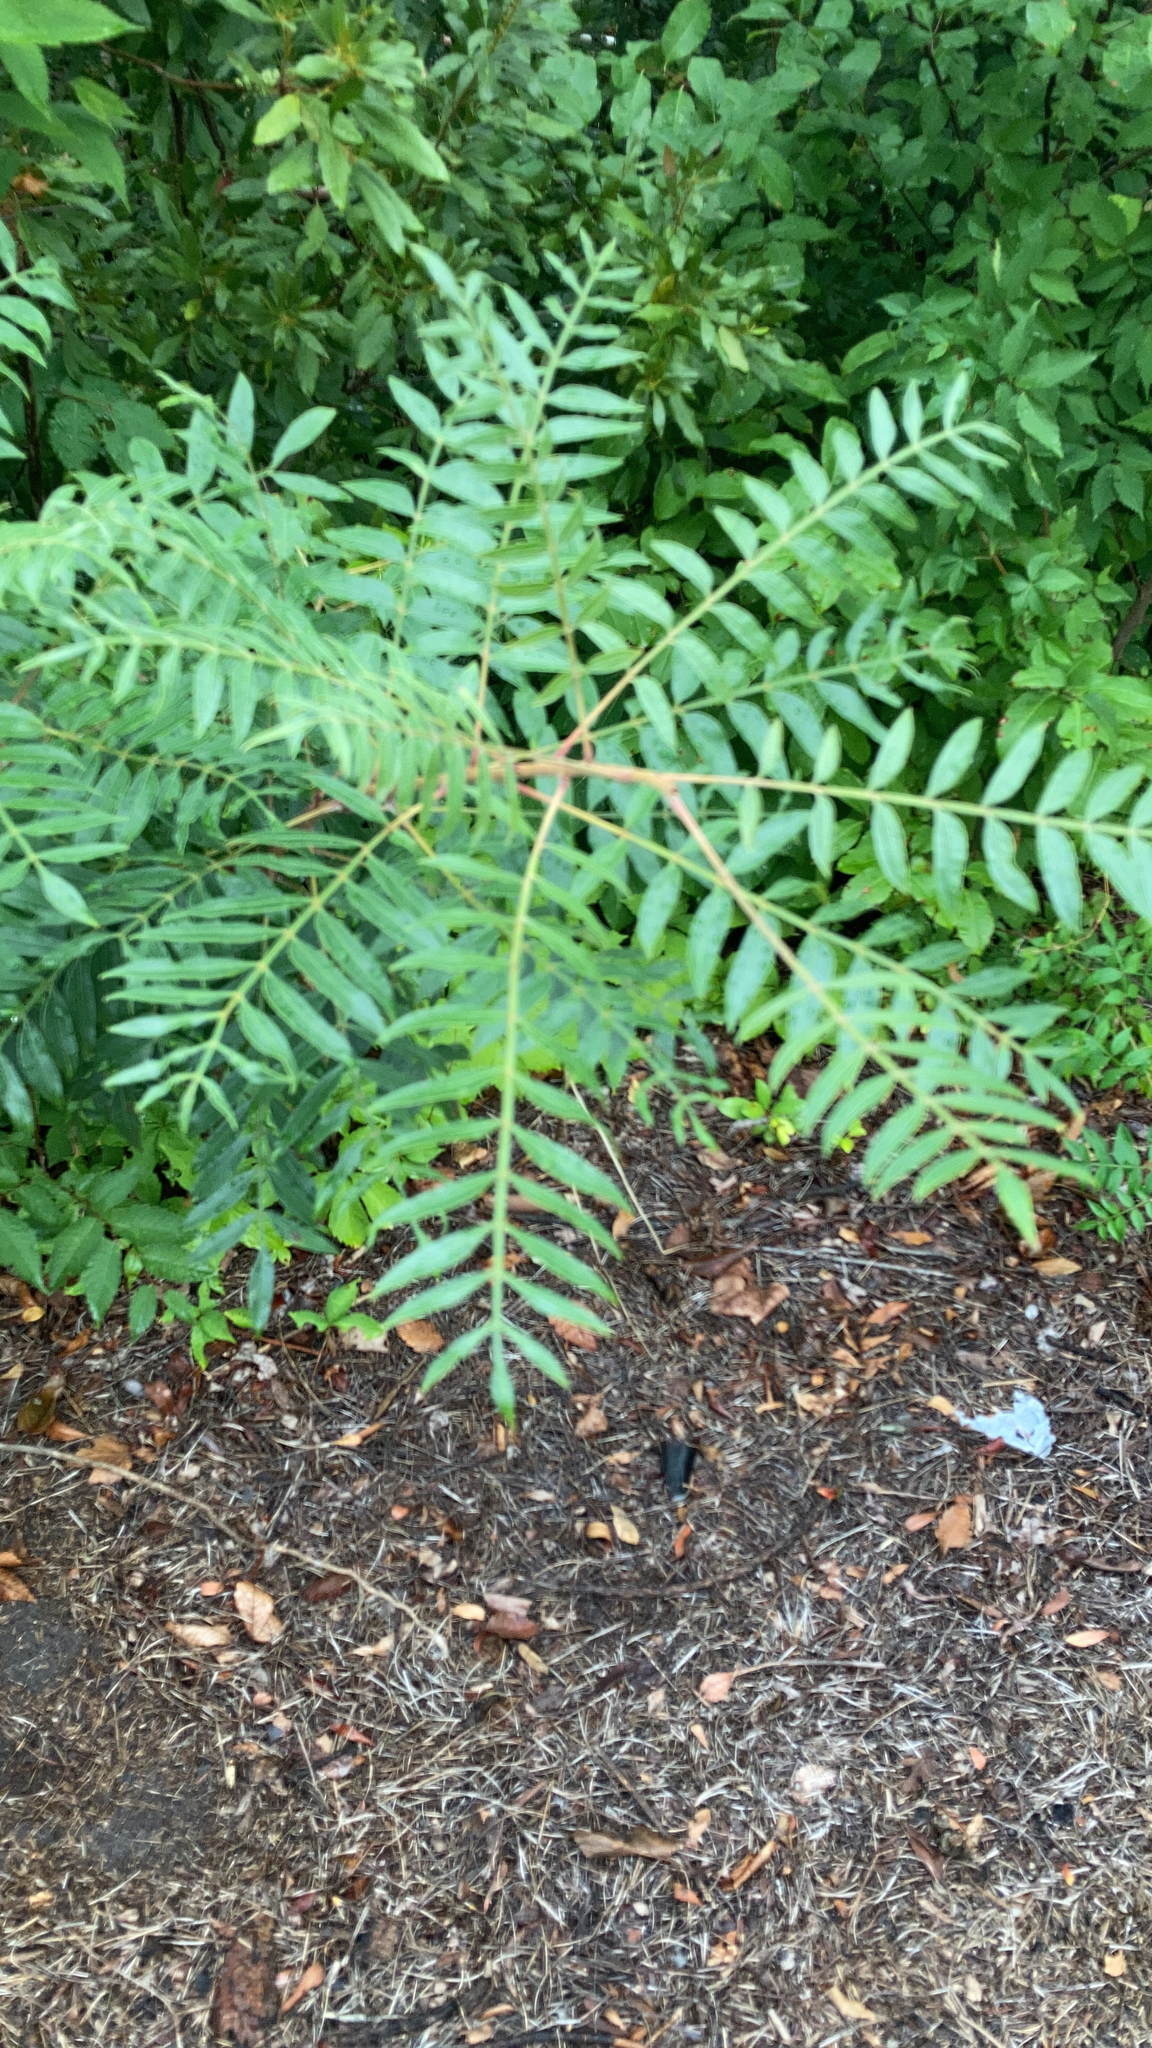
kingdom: Plantae
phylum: Tracheophyta
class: Magnoliopsida
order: Sapindales
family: Anacardiaceae
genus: Rhus
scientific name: Rhus copallina
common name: Shining sumac
